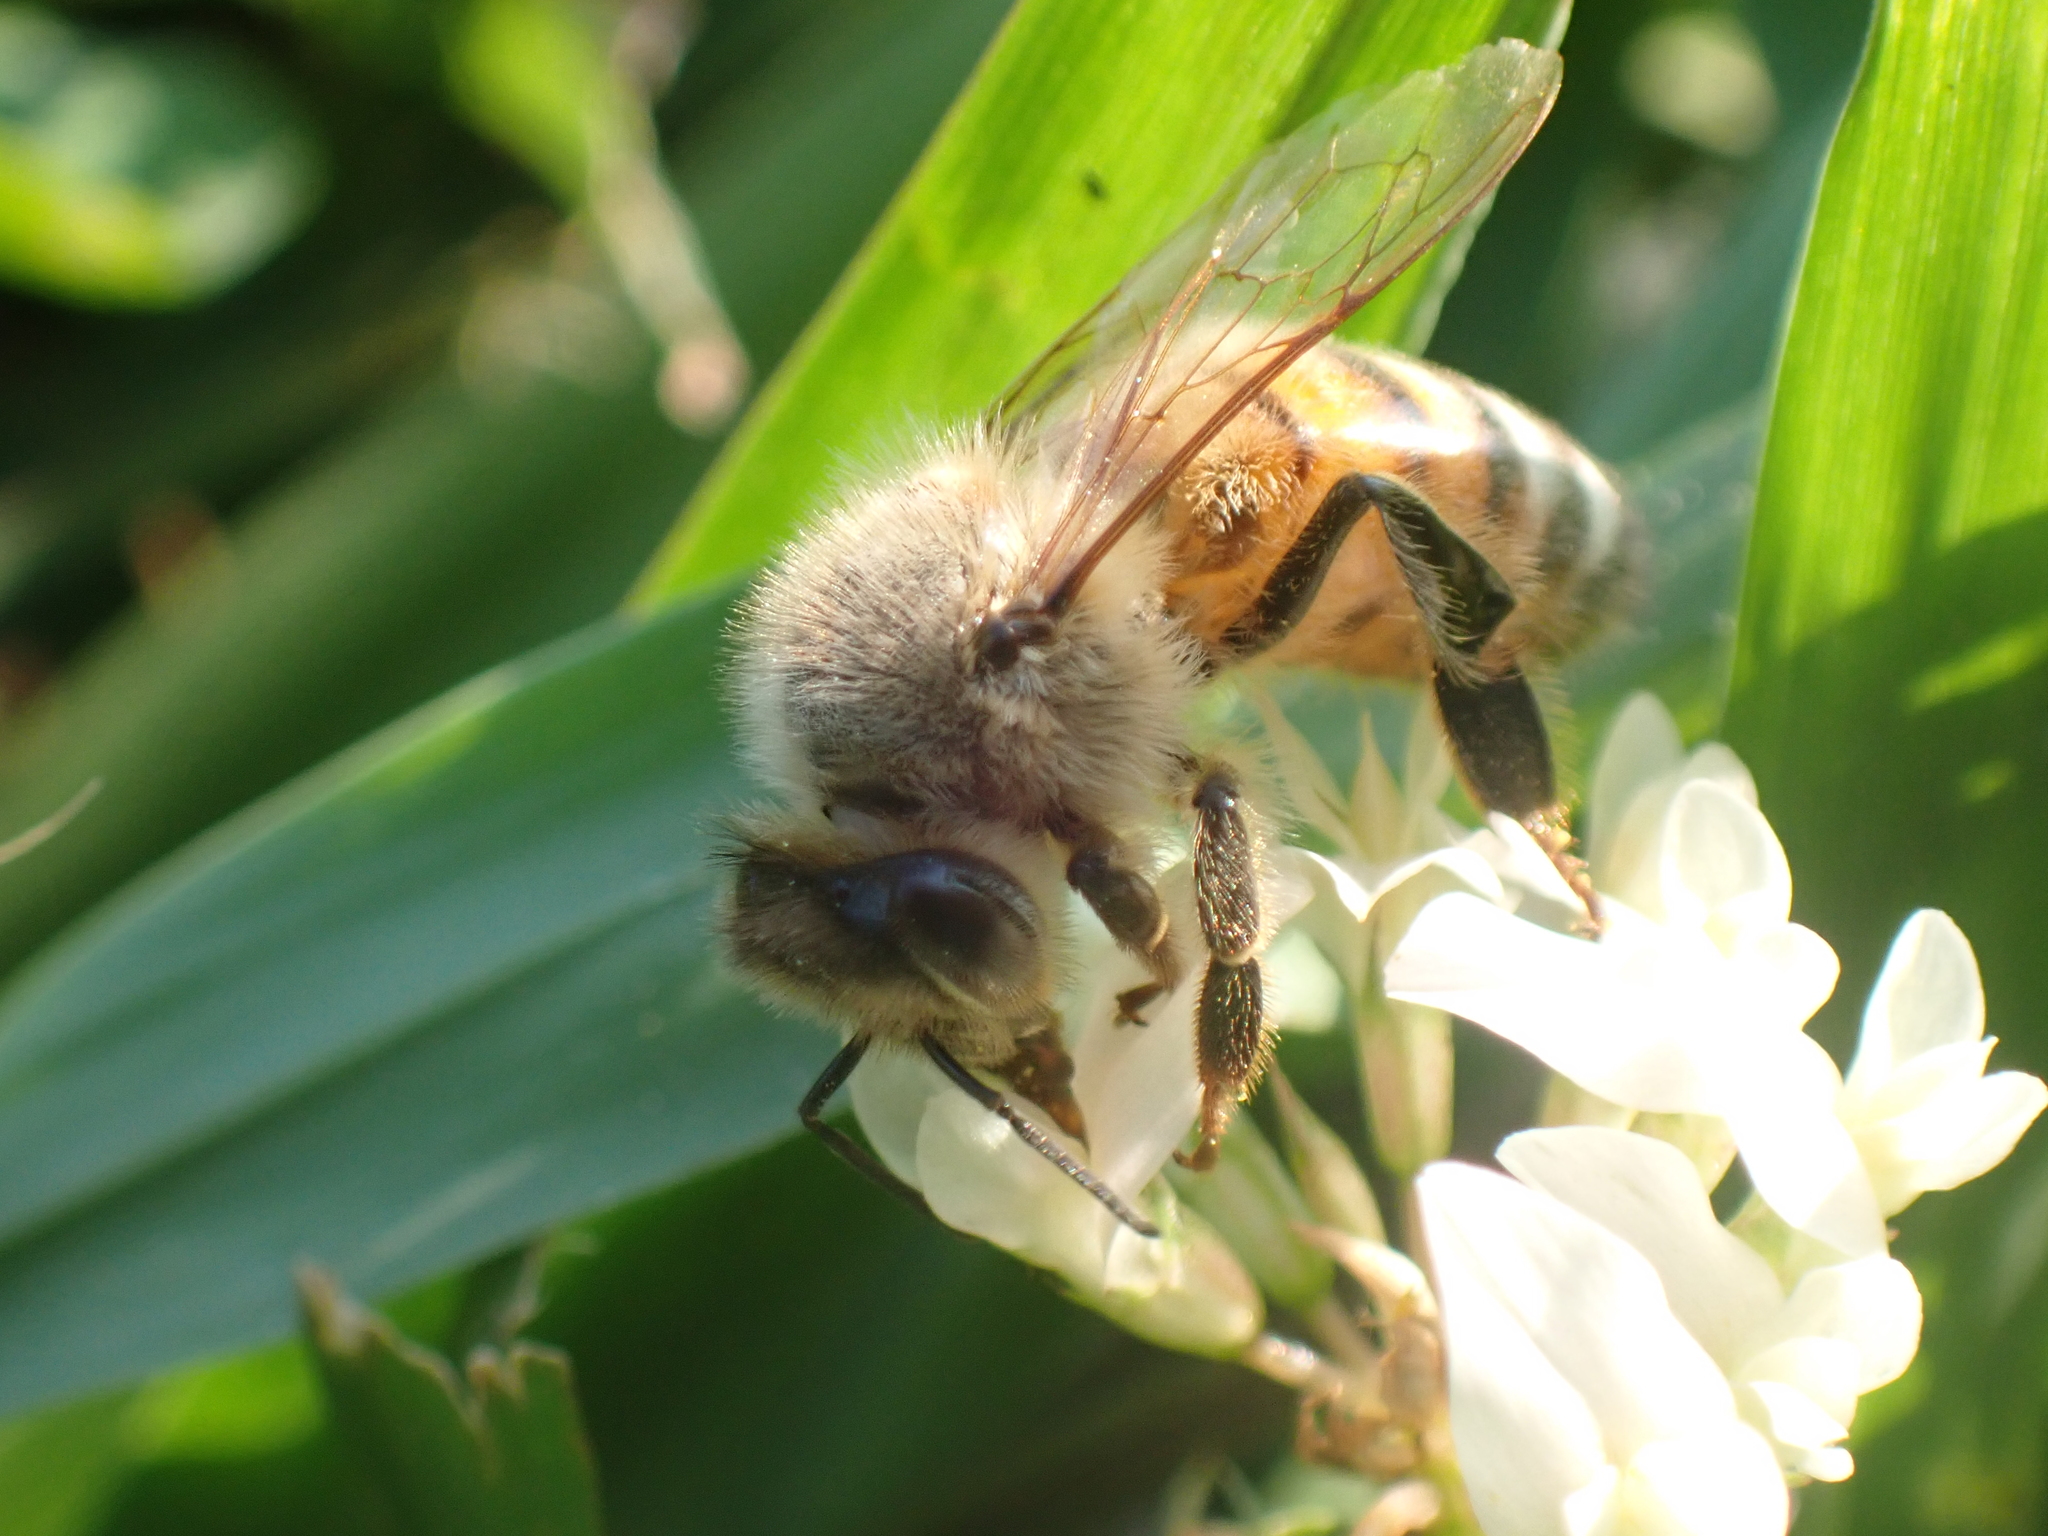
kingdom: Animalia
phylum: Arthropoda
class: Insecta
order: Hymenoptera
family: Apidae
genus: Apis
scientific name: Apis mellifera
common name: Honey bee
